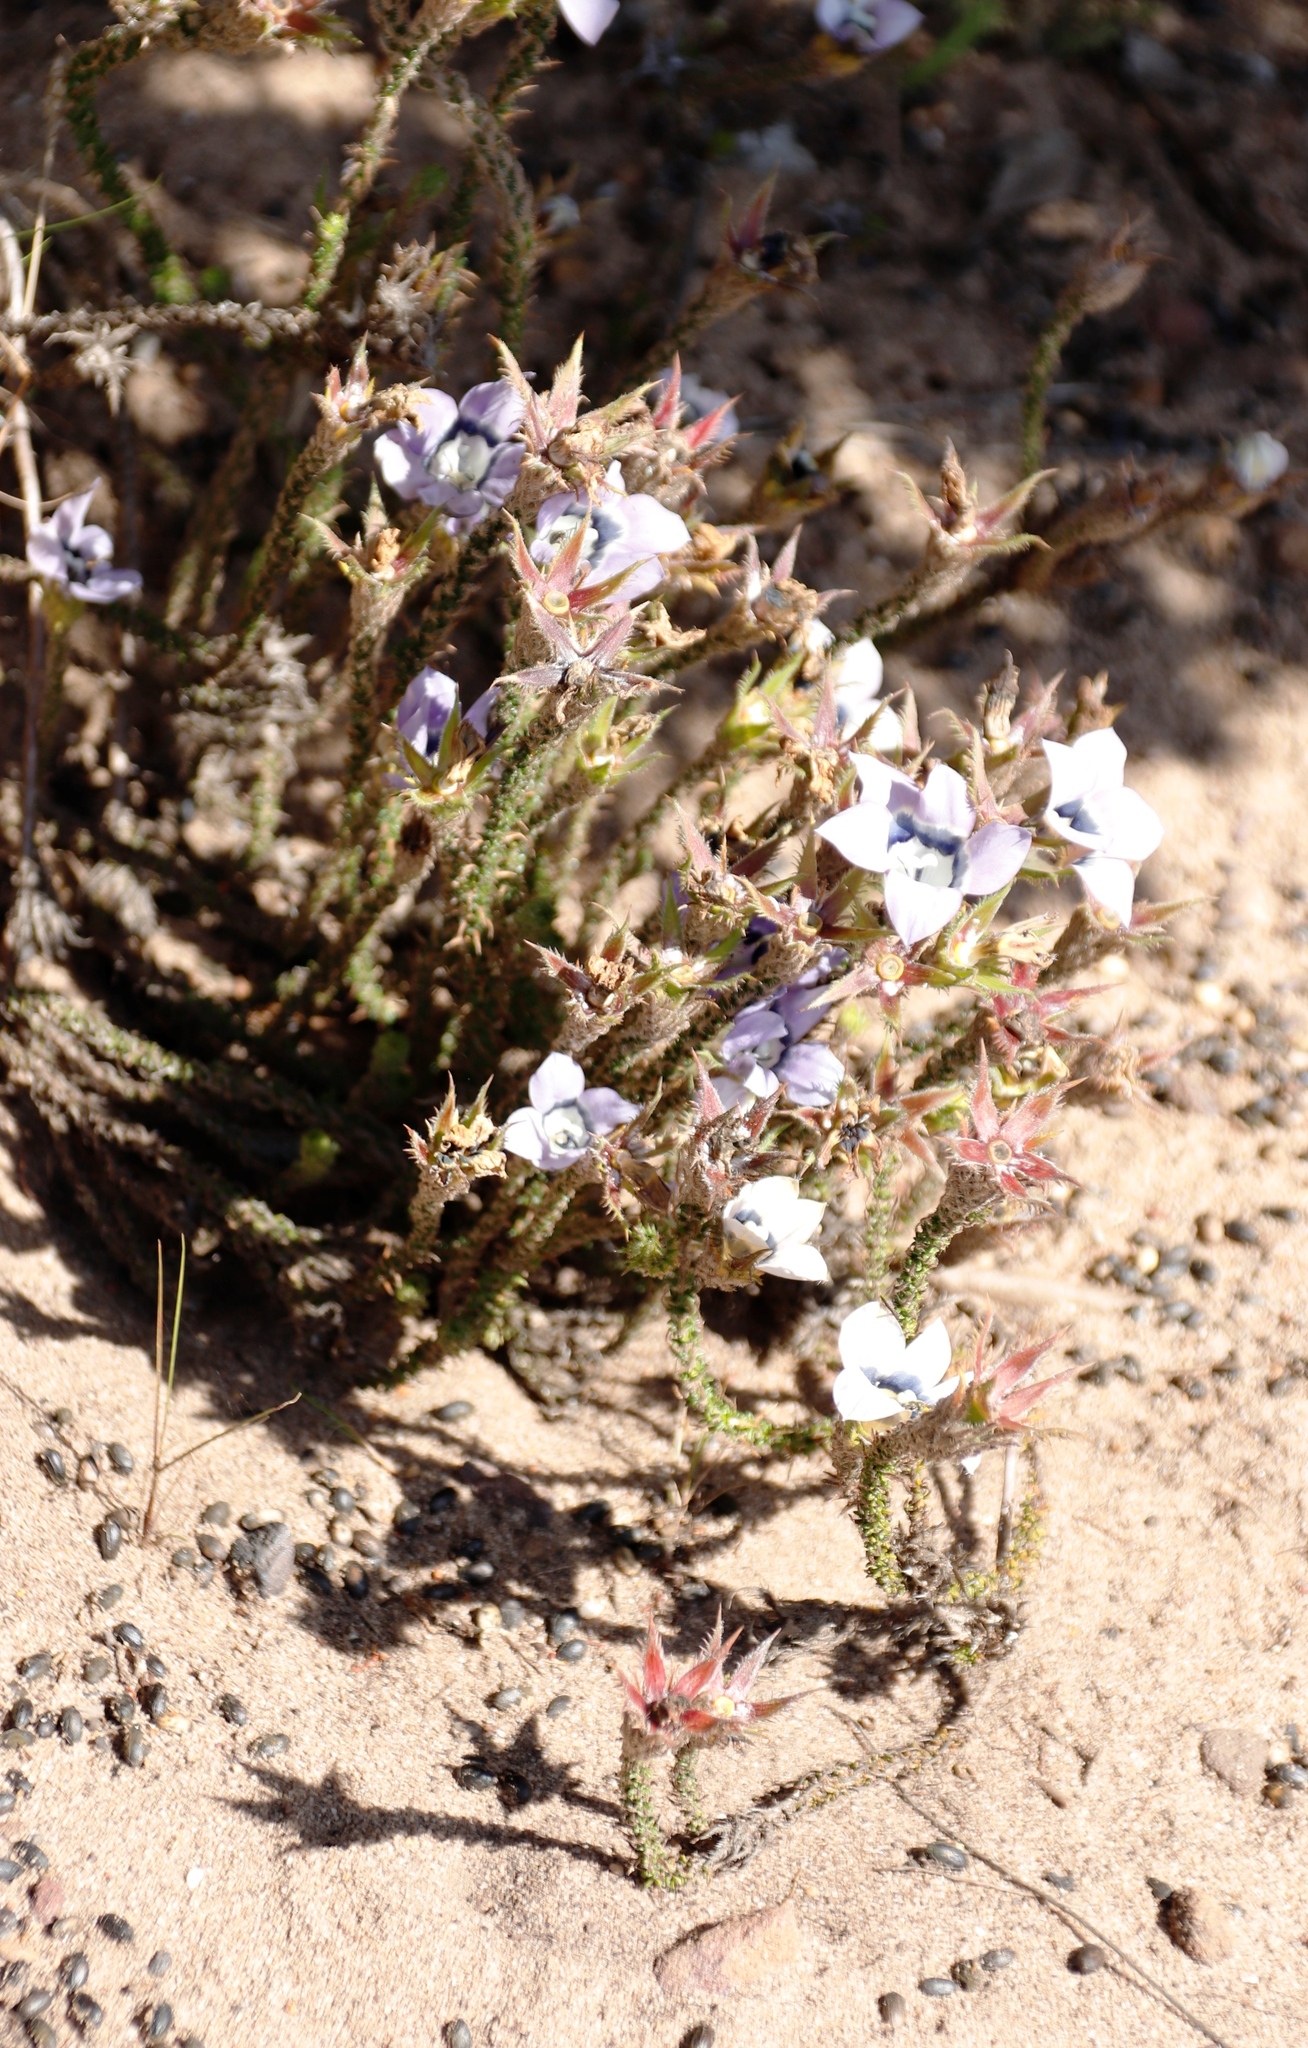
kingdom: Plantae
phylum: Tracheophyta
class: Magnoliopsida
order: Asterales
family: Campanulaceae
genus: Roella
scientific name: Roella ciliata
